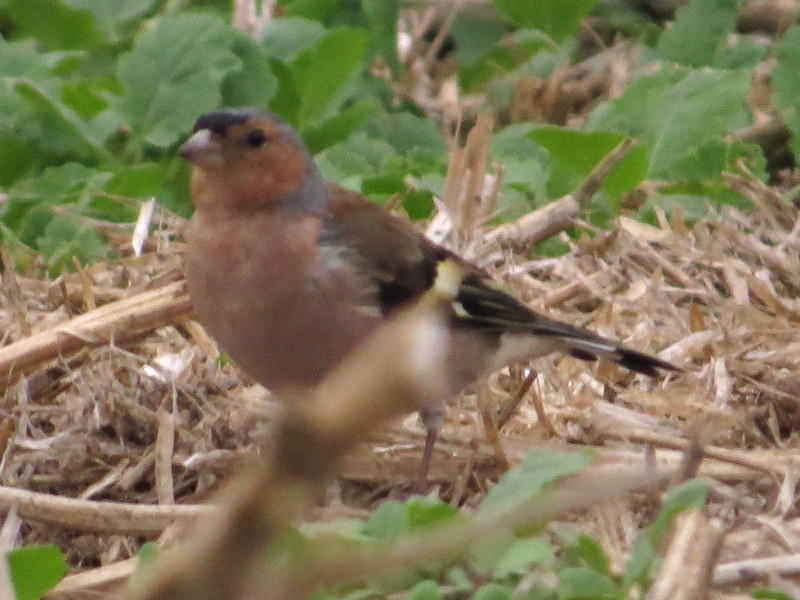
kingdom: Animalia
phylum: Chordata
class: Aves
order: Passeriformes
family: Fringillidae
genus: Fringilla
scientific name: Fringilla coelebs
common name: Common chaffinch
